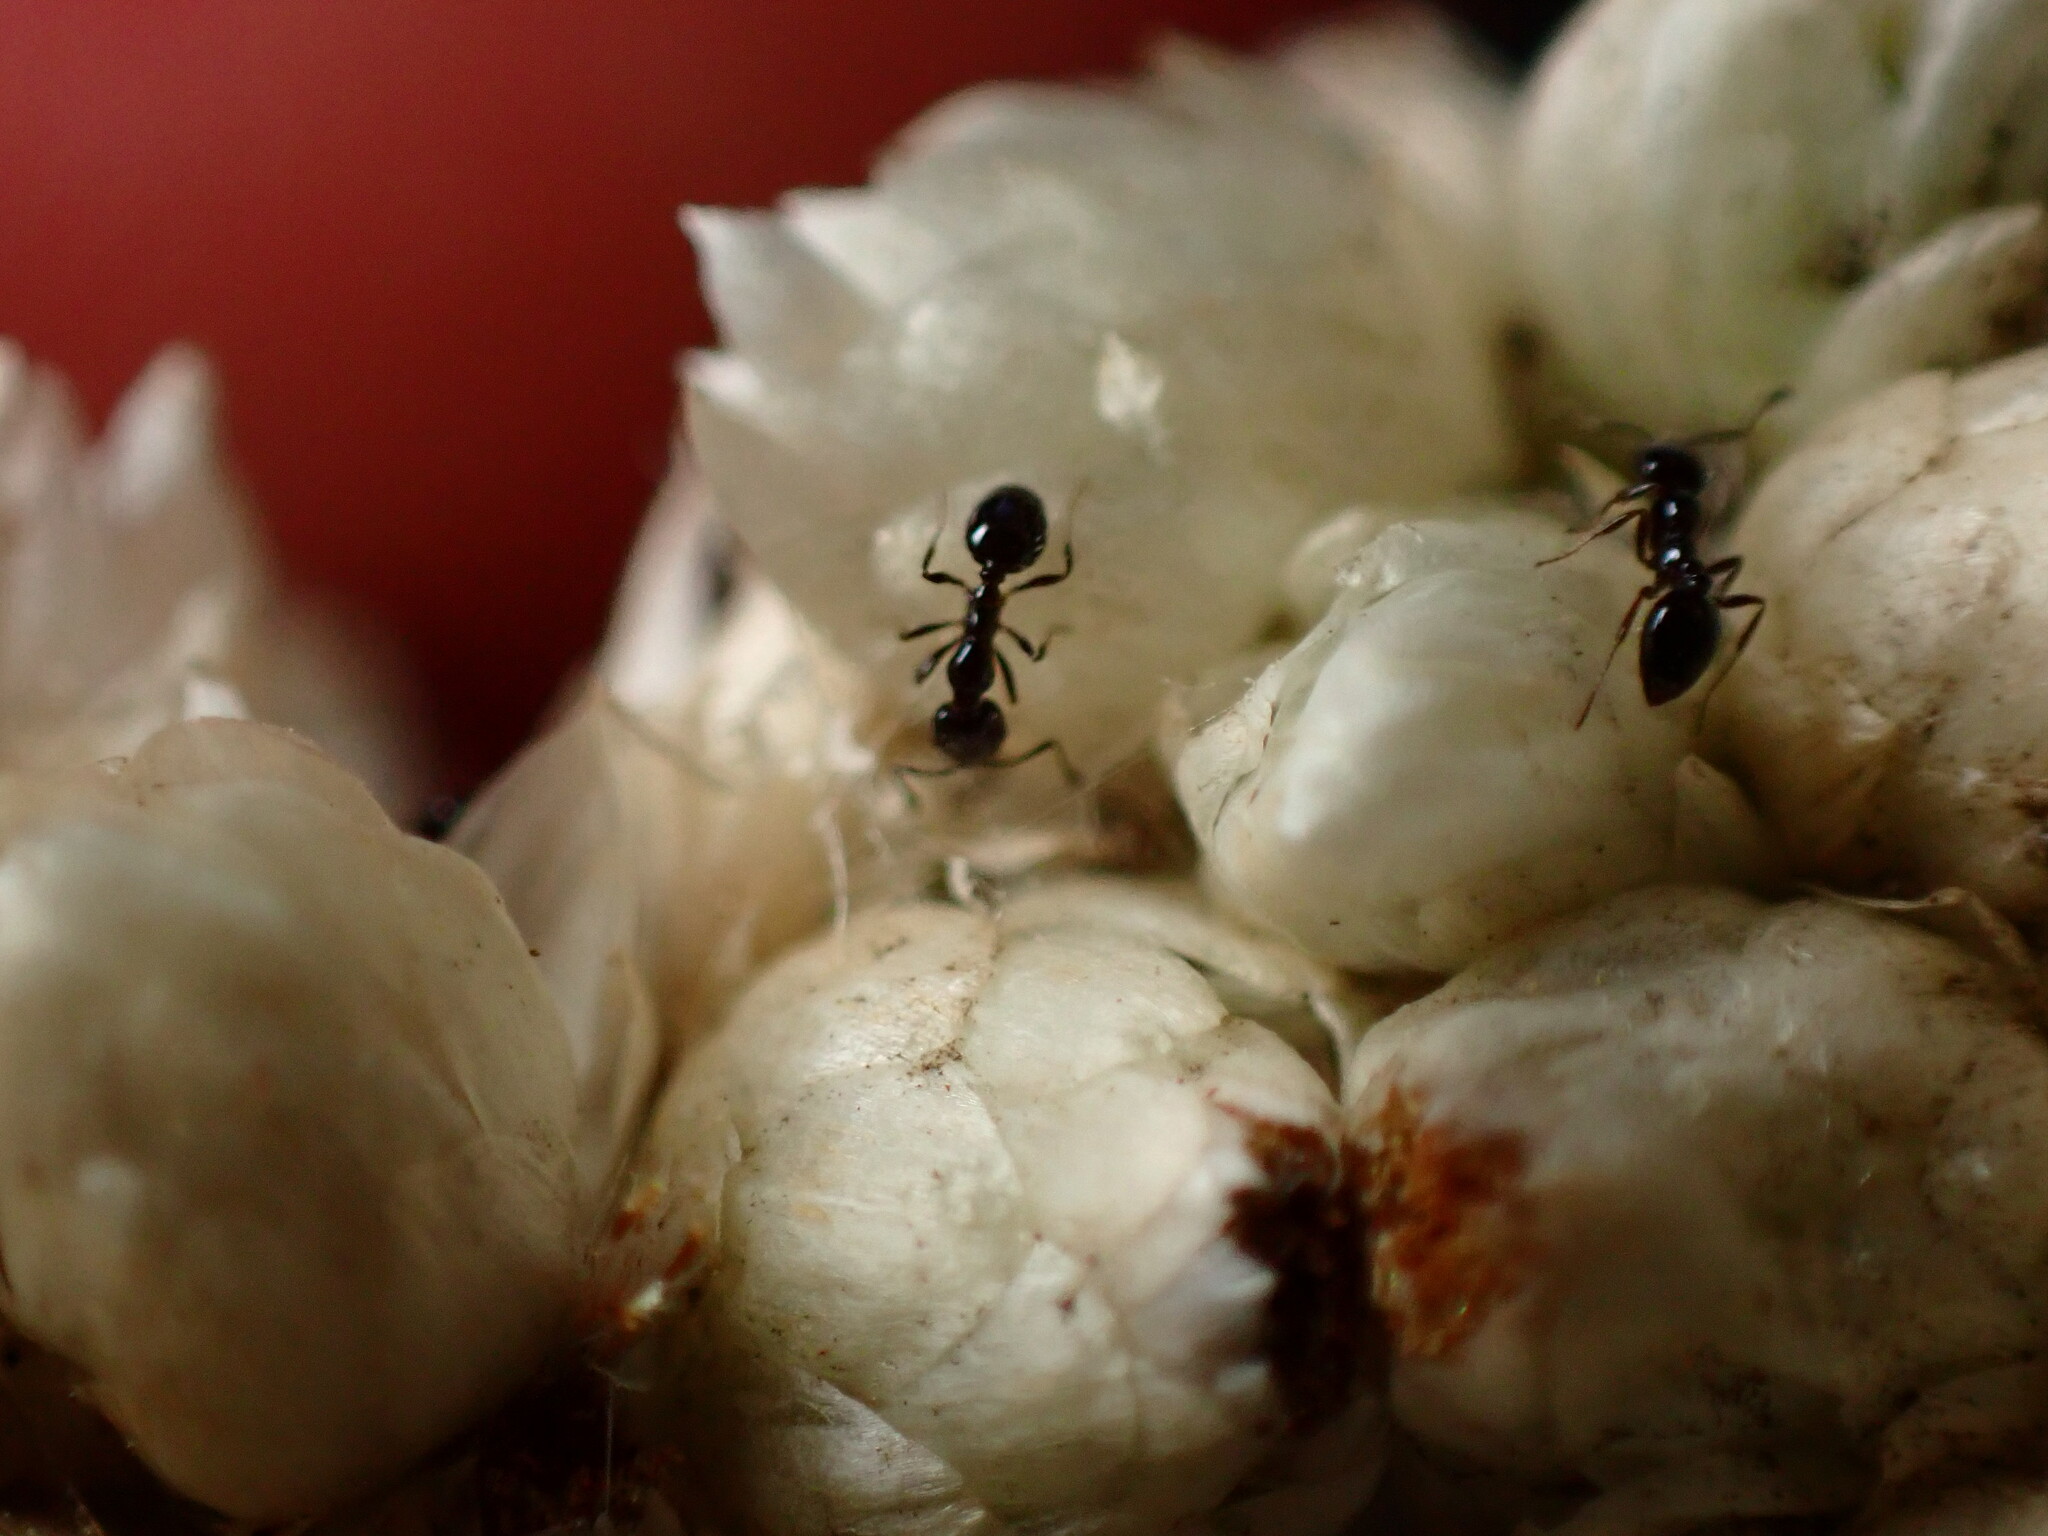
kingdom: Animalia
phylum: Arthropoda
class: Insecta
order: Hymenoptera
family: Formicidae
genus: Monomorium
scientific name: Monomorium ergatogyna
